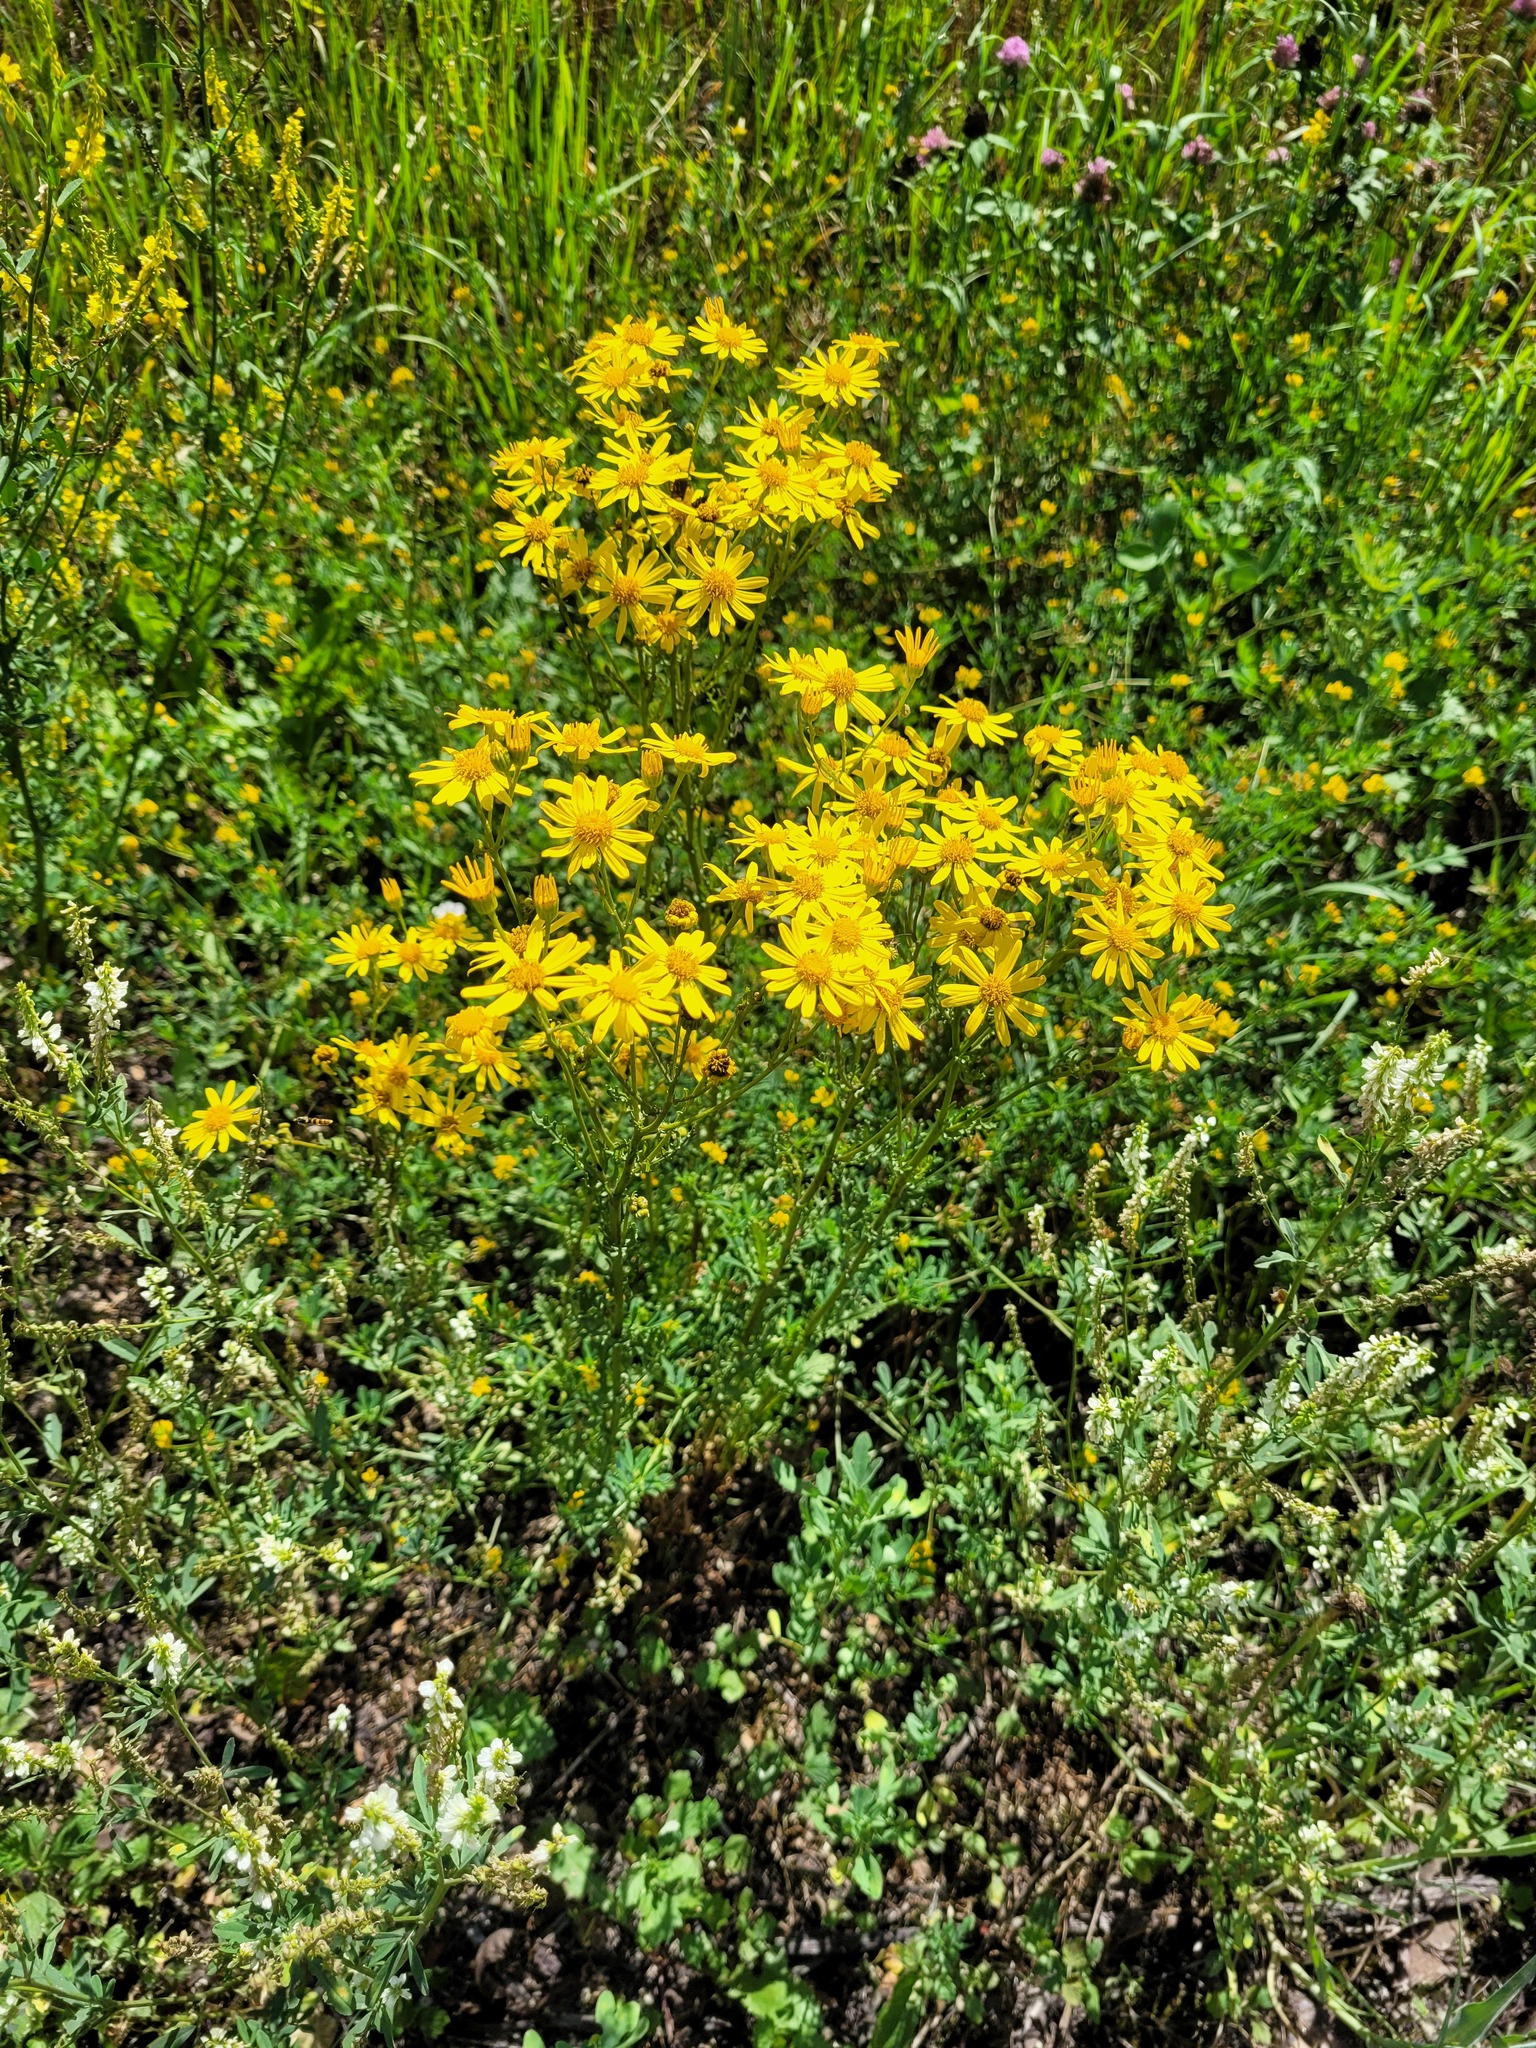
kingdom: Plantae
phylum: Tracheophyta
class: Magnoliopsida
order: Asterales
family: Asteraceae
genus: Jacobaea
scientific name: Jacobaea vulgaris
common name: Stinking willie
